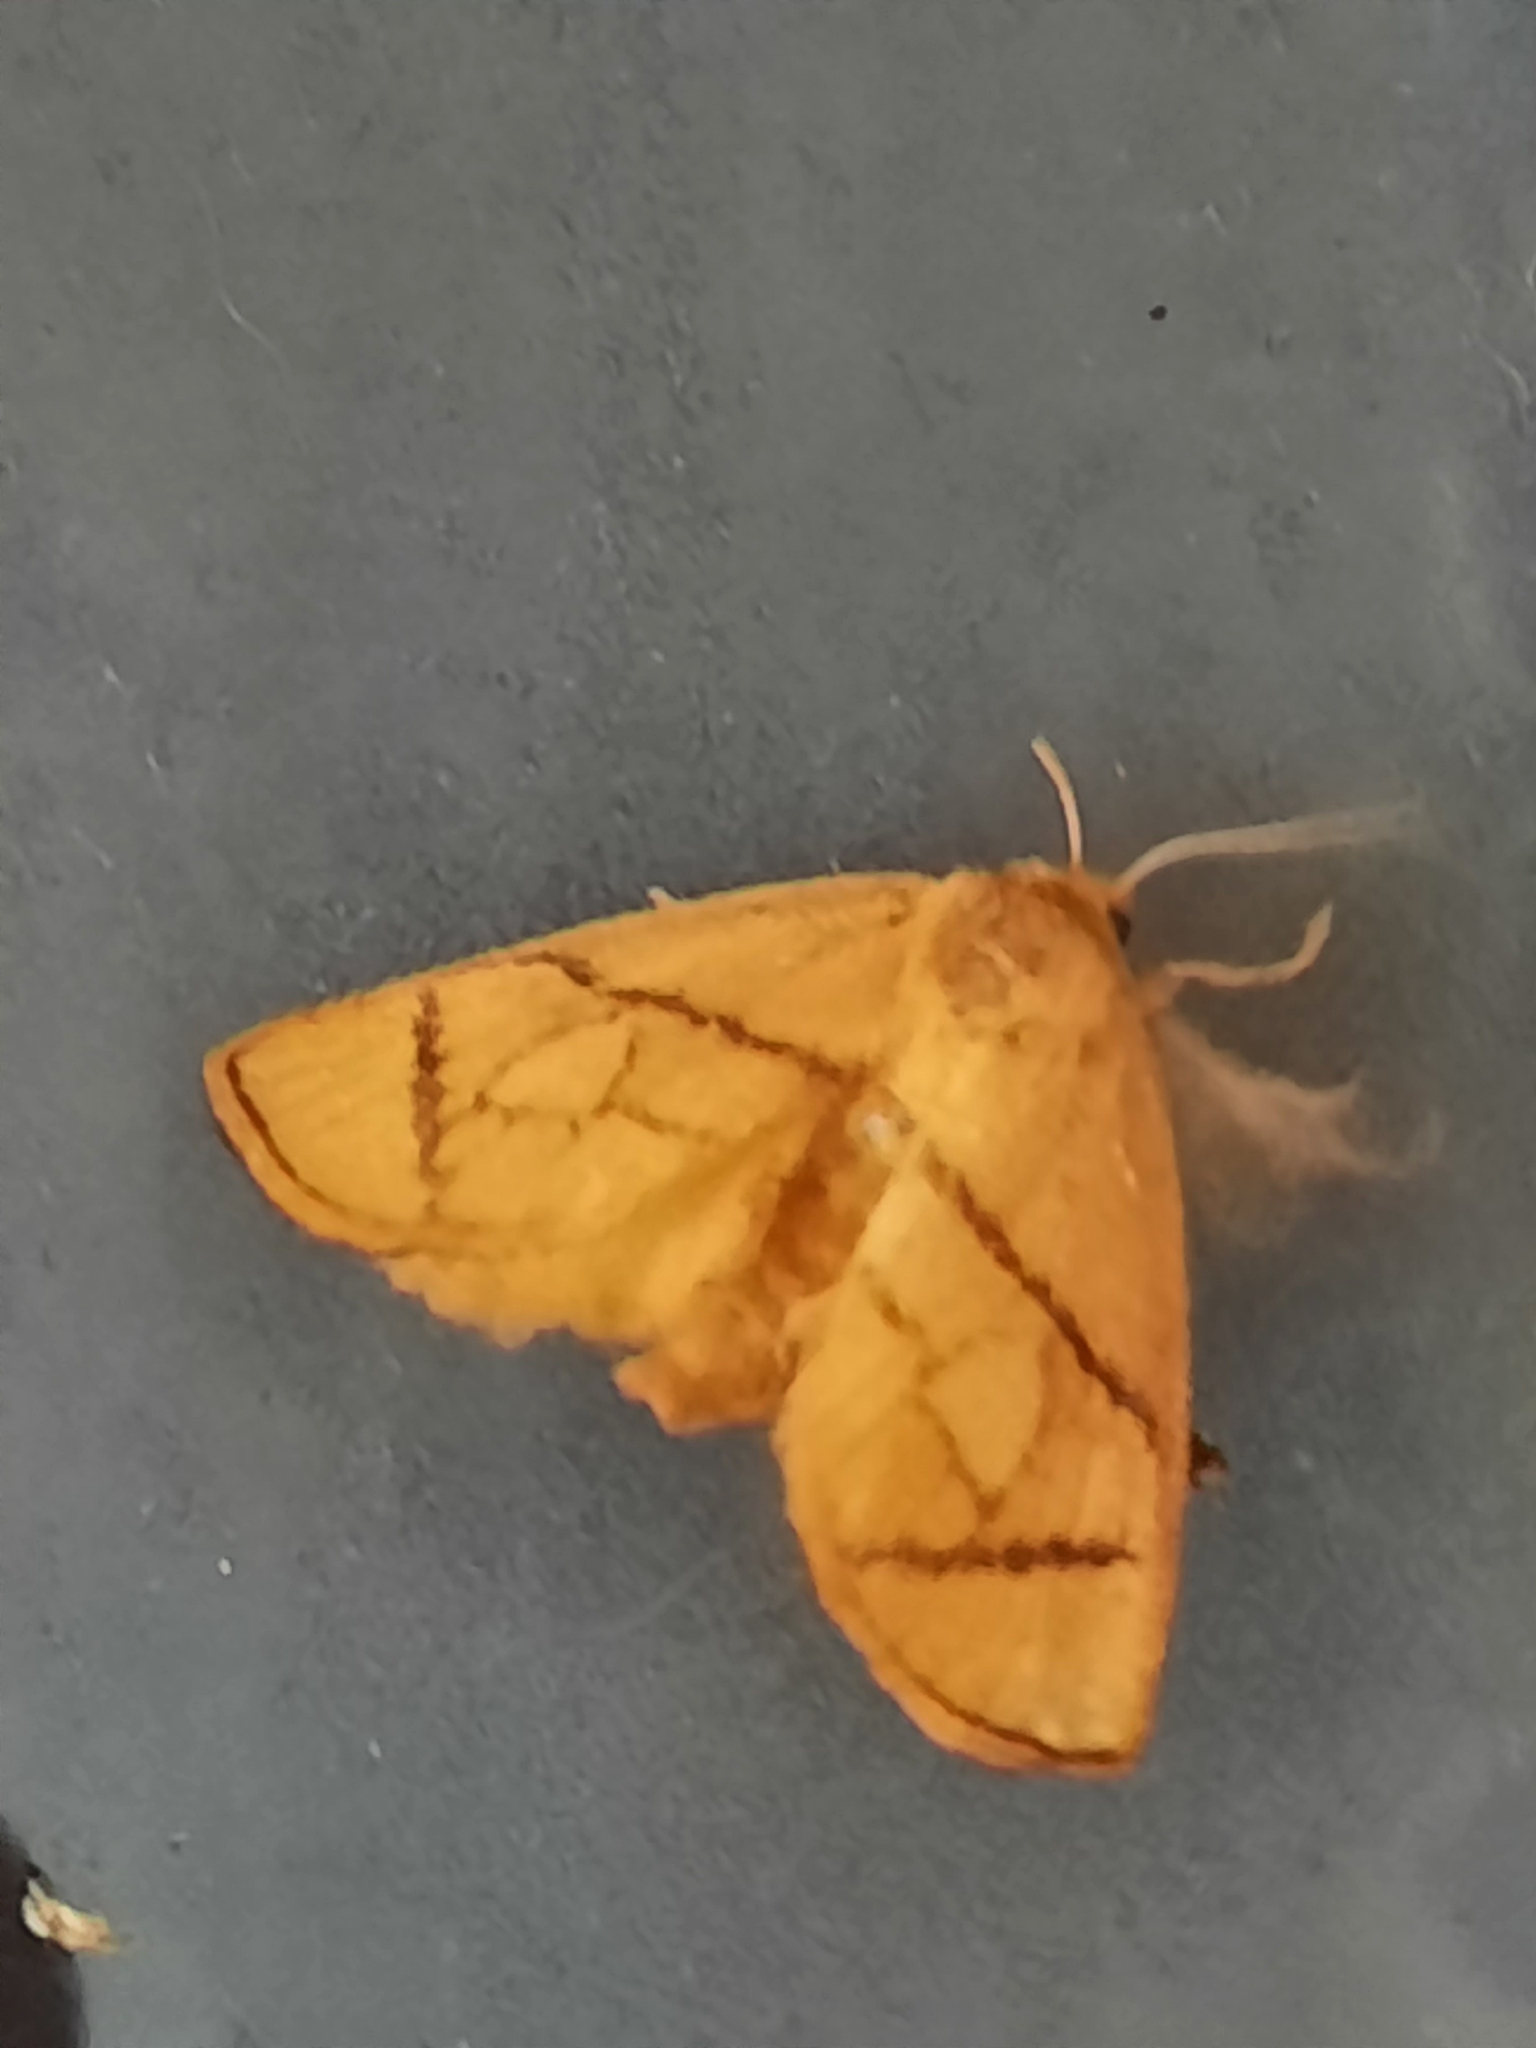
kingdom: Animalia
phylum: Arthropoda
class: Insecta
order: Lepidoptera
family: Limacodidae
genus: Apoda
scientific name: Apoda y-inversa
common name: Yellow-collared slug moth
